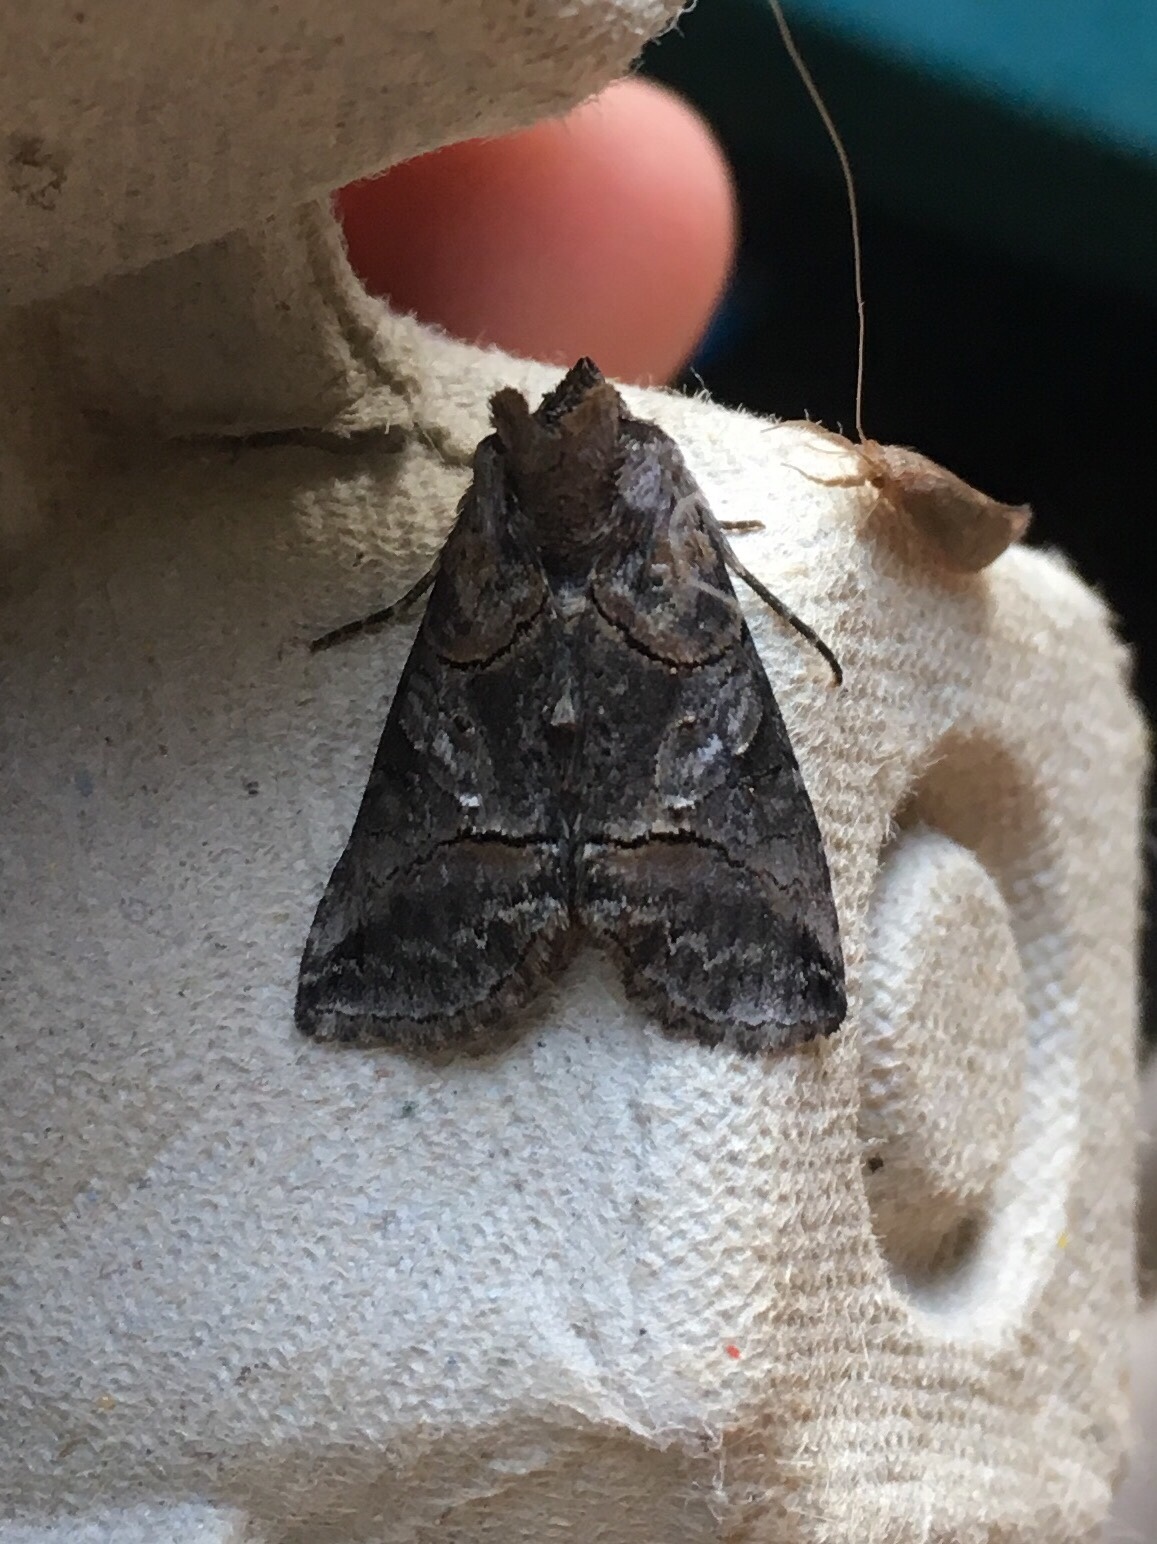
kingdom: Animalia
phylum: Arthropoda
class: Insecta
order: Lepidoptera
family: Noctuidae
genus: Abrostola
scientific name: Abrostola urentis
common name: Spectacled nettle moth
